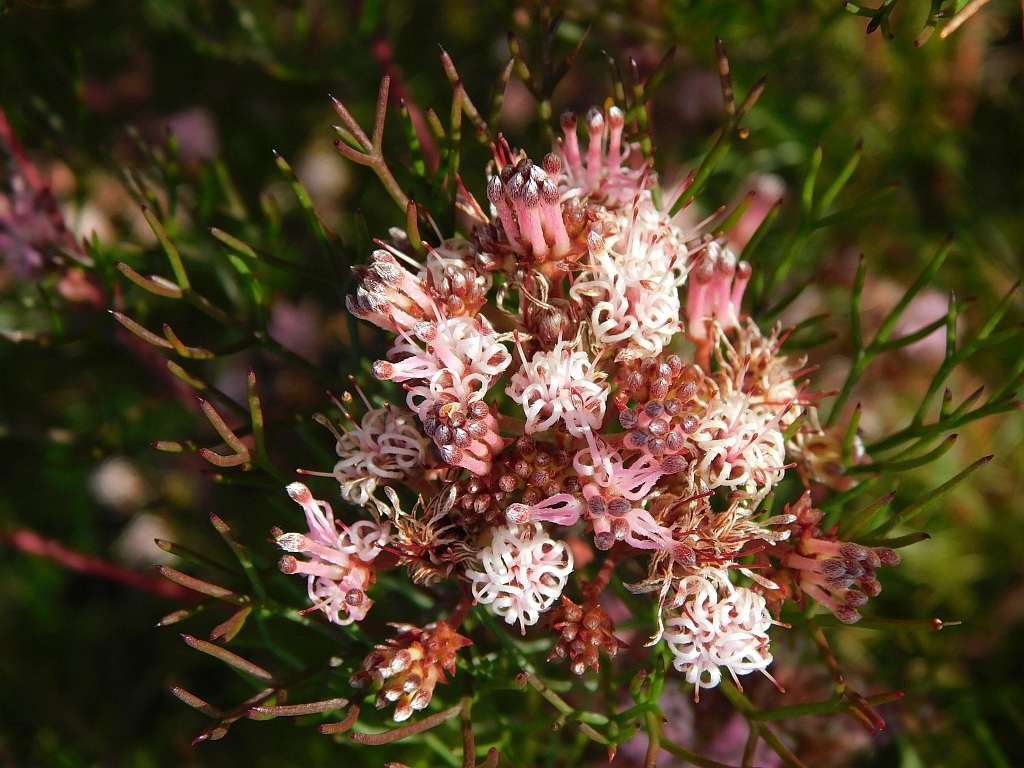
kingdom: Plantae
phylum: Tracheophyta
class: Magnoliopsida
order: Proteales
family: Proteaceae
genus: Serruria
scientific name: Serruria fasciflora
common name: Common pin spiderhead
